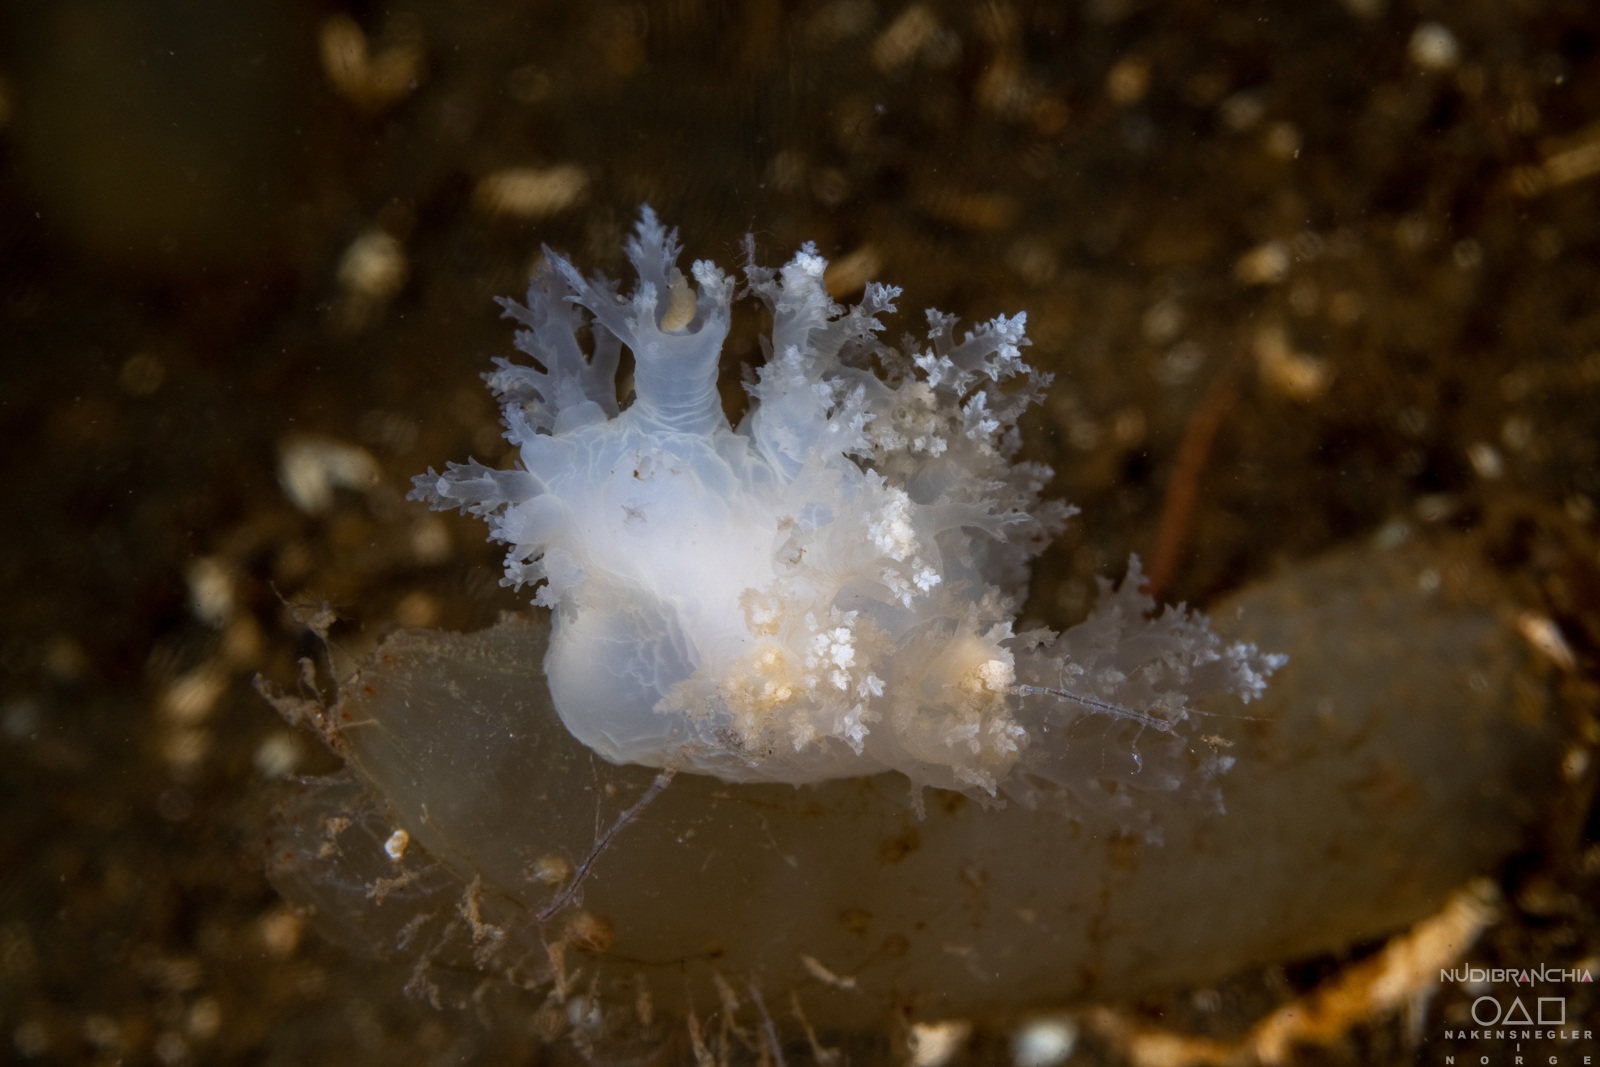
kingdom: Animalia
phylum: Mollusca
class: Gastropoda
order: Nudibranchia
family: Dendronotidae
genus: Dendronotus
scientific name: Dendronotus lacteus
